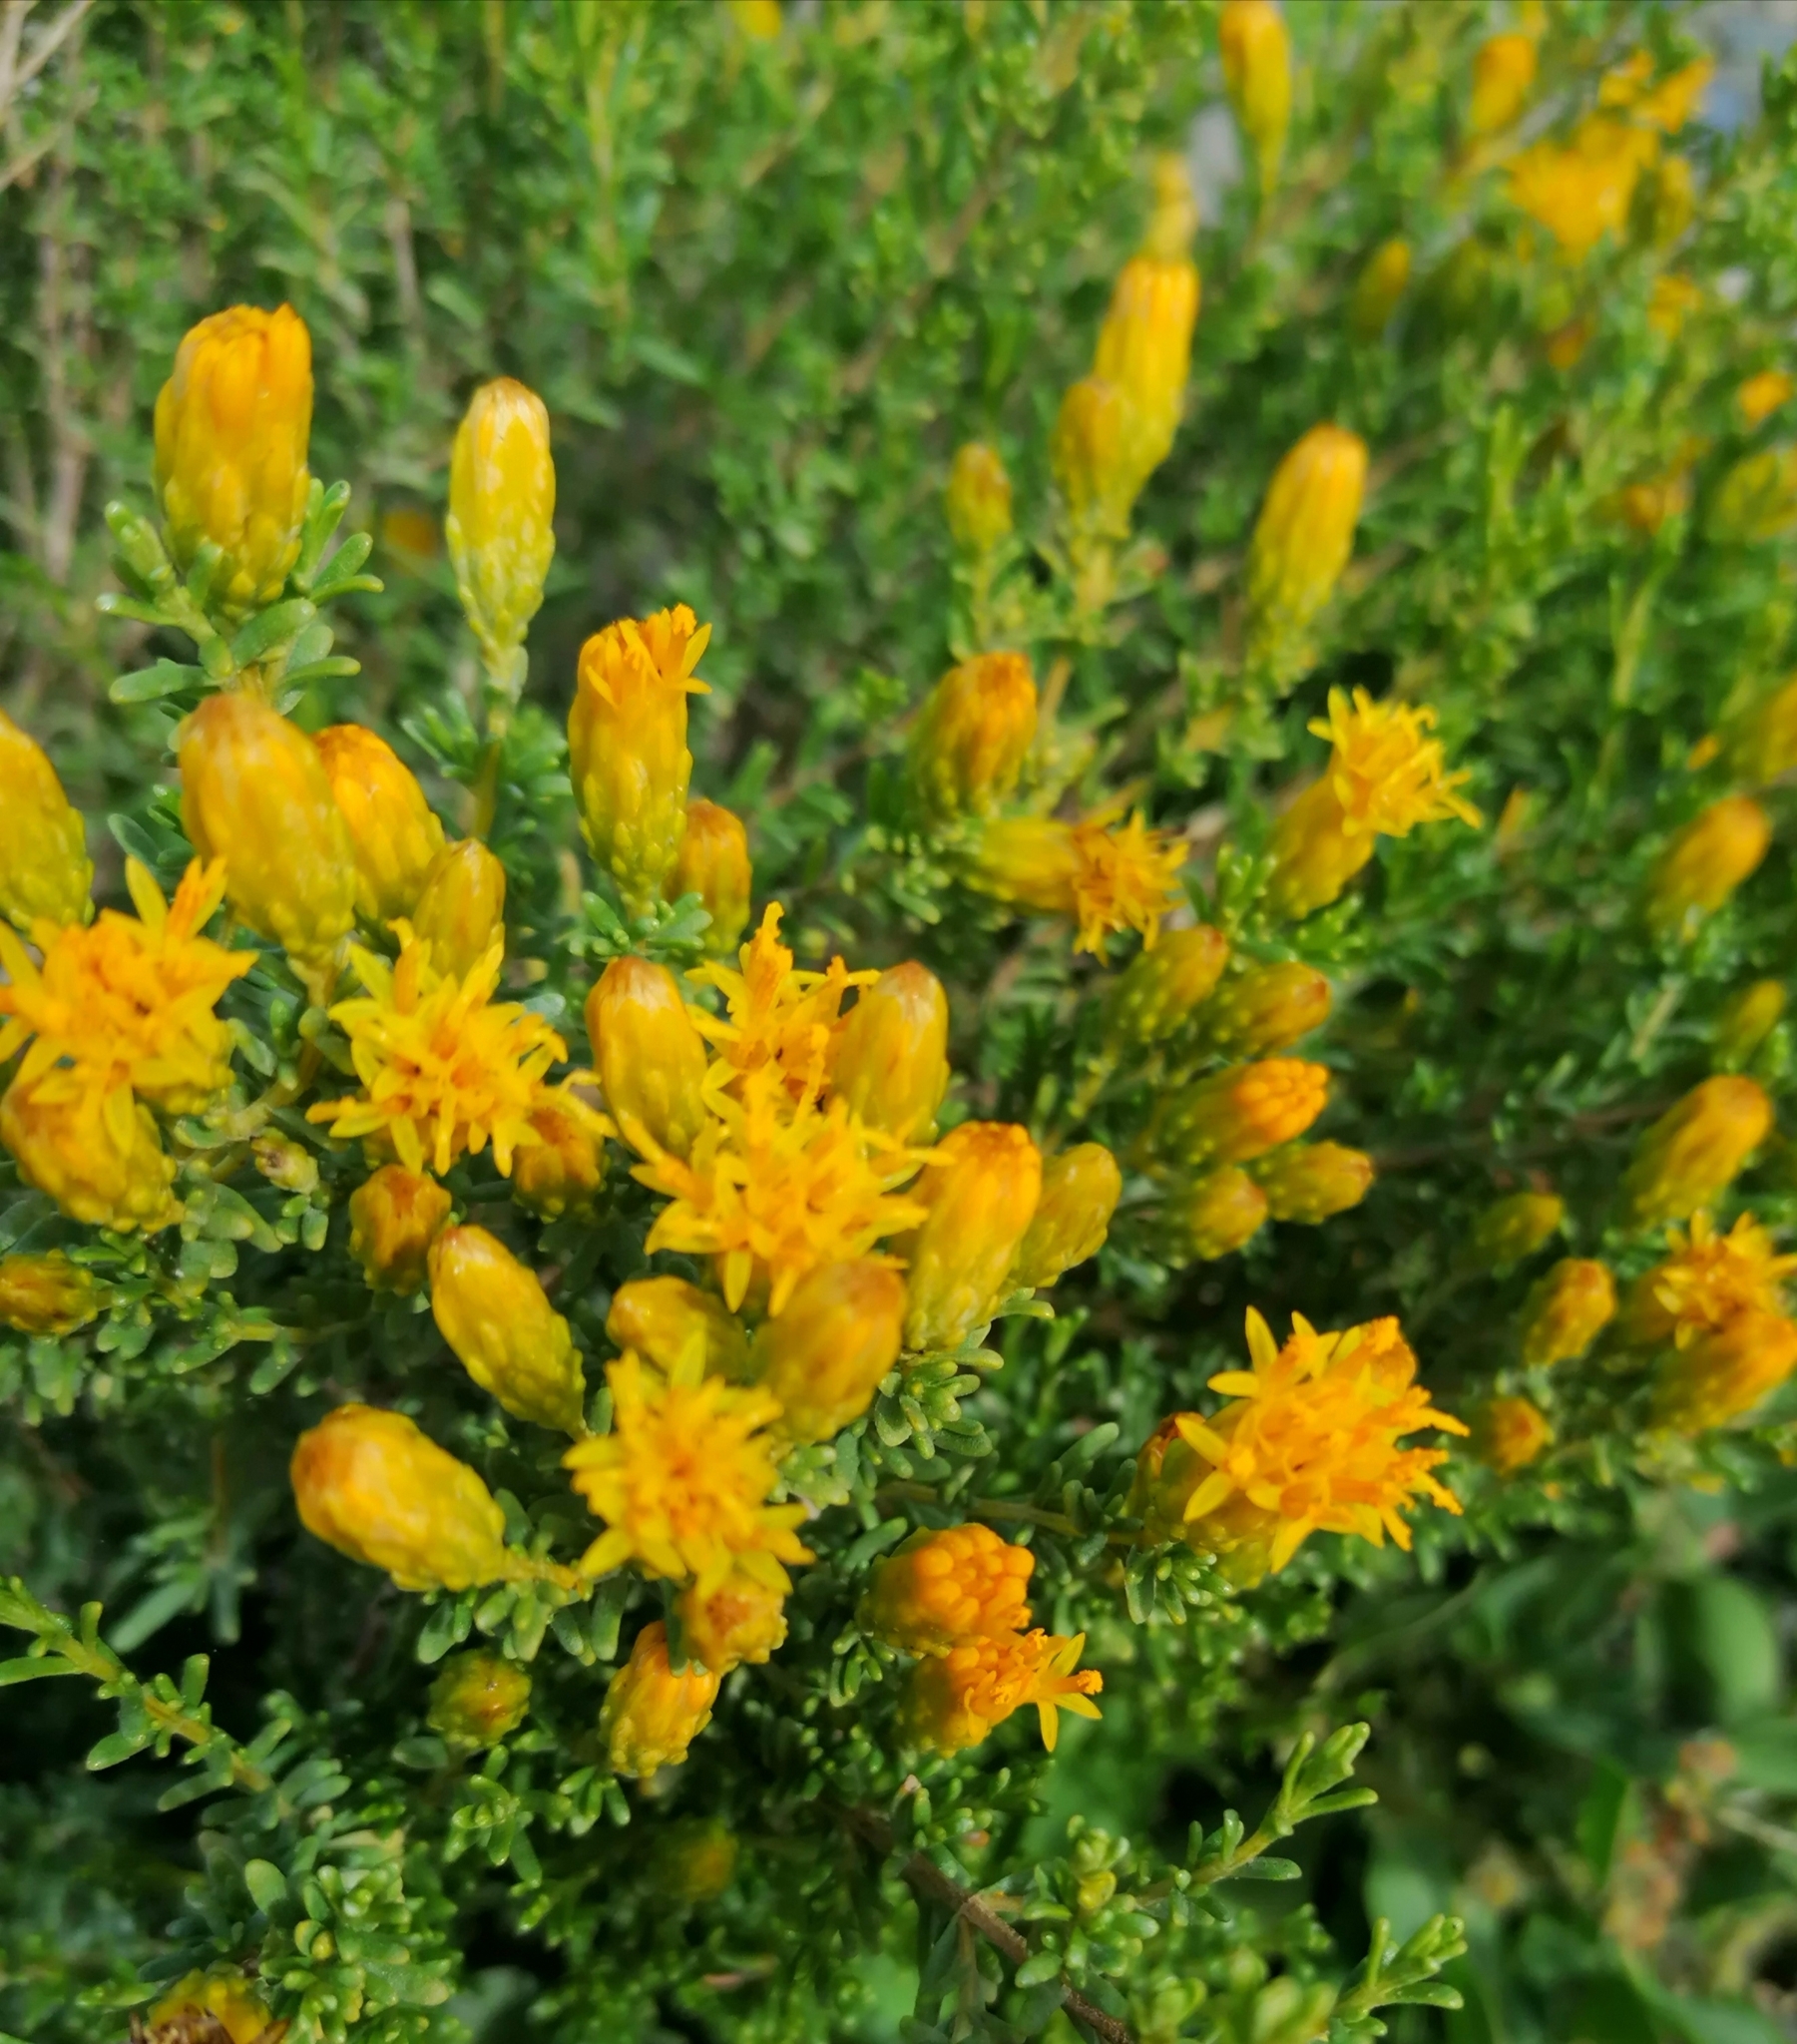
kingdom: Plantae
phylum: Tracheophyta
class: Magnoliopsida
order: Asterales
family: Asteraceae
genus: Pteronia
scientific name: Pteronia empetrifolia
